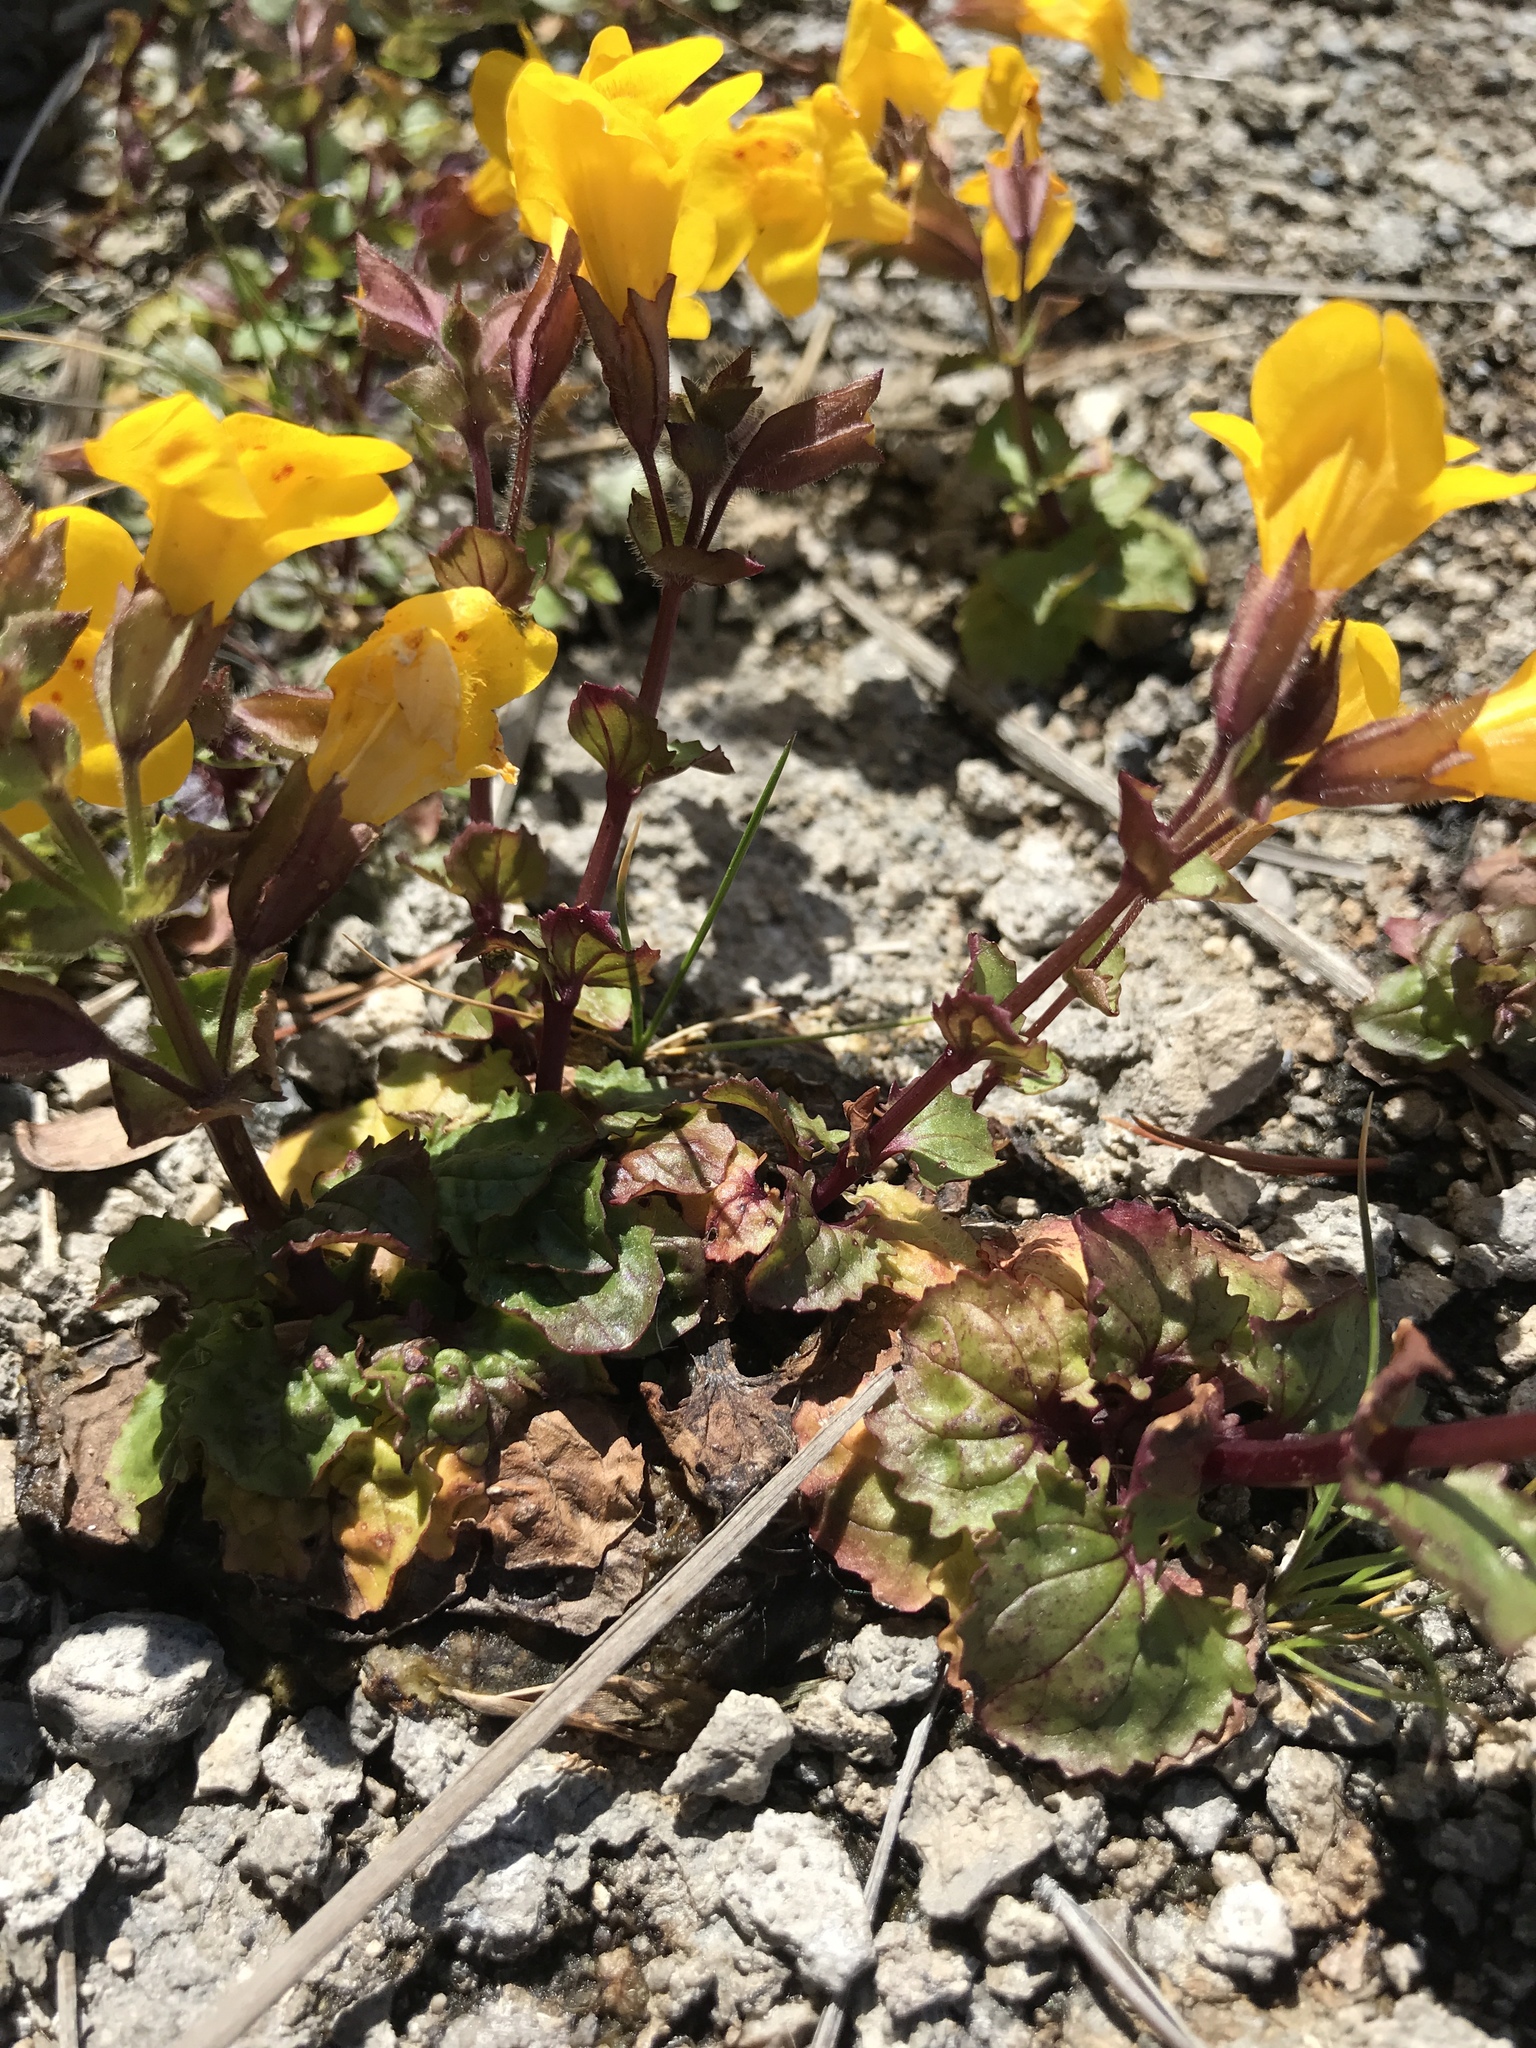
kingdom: Plantae
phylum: Tracheophyta
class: Magnoliopsida
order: Lamiales
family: Phrymaceae
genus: Erythranthe
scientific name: Erythranthe thermalis
